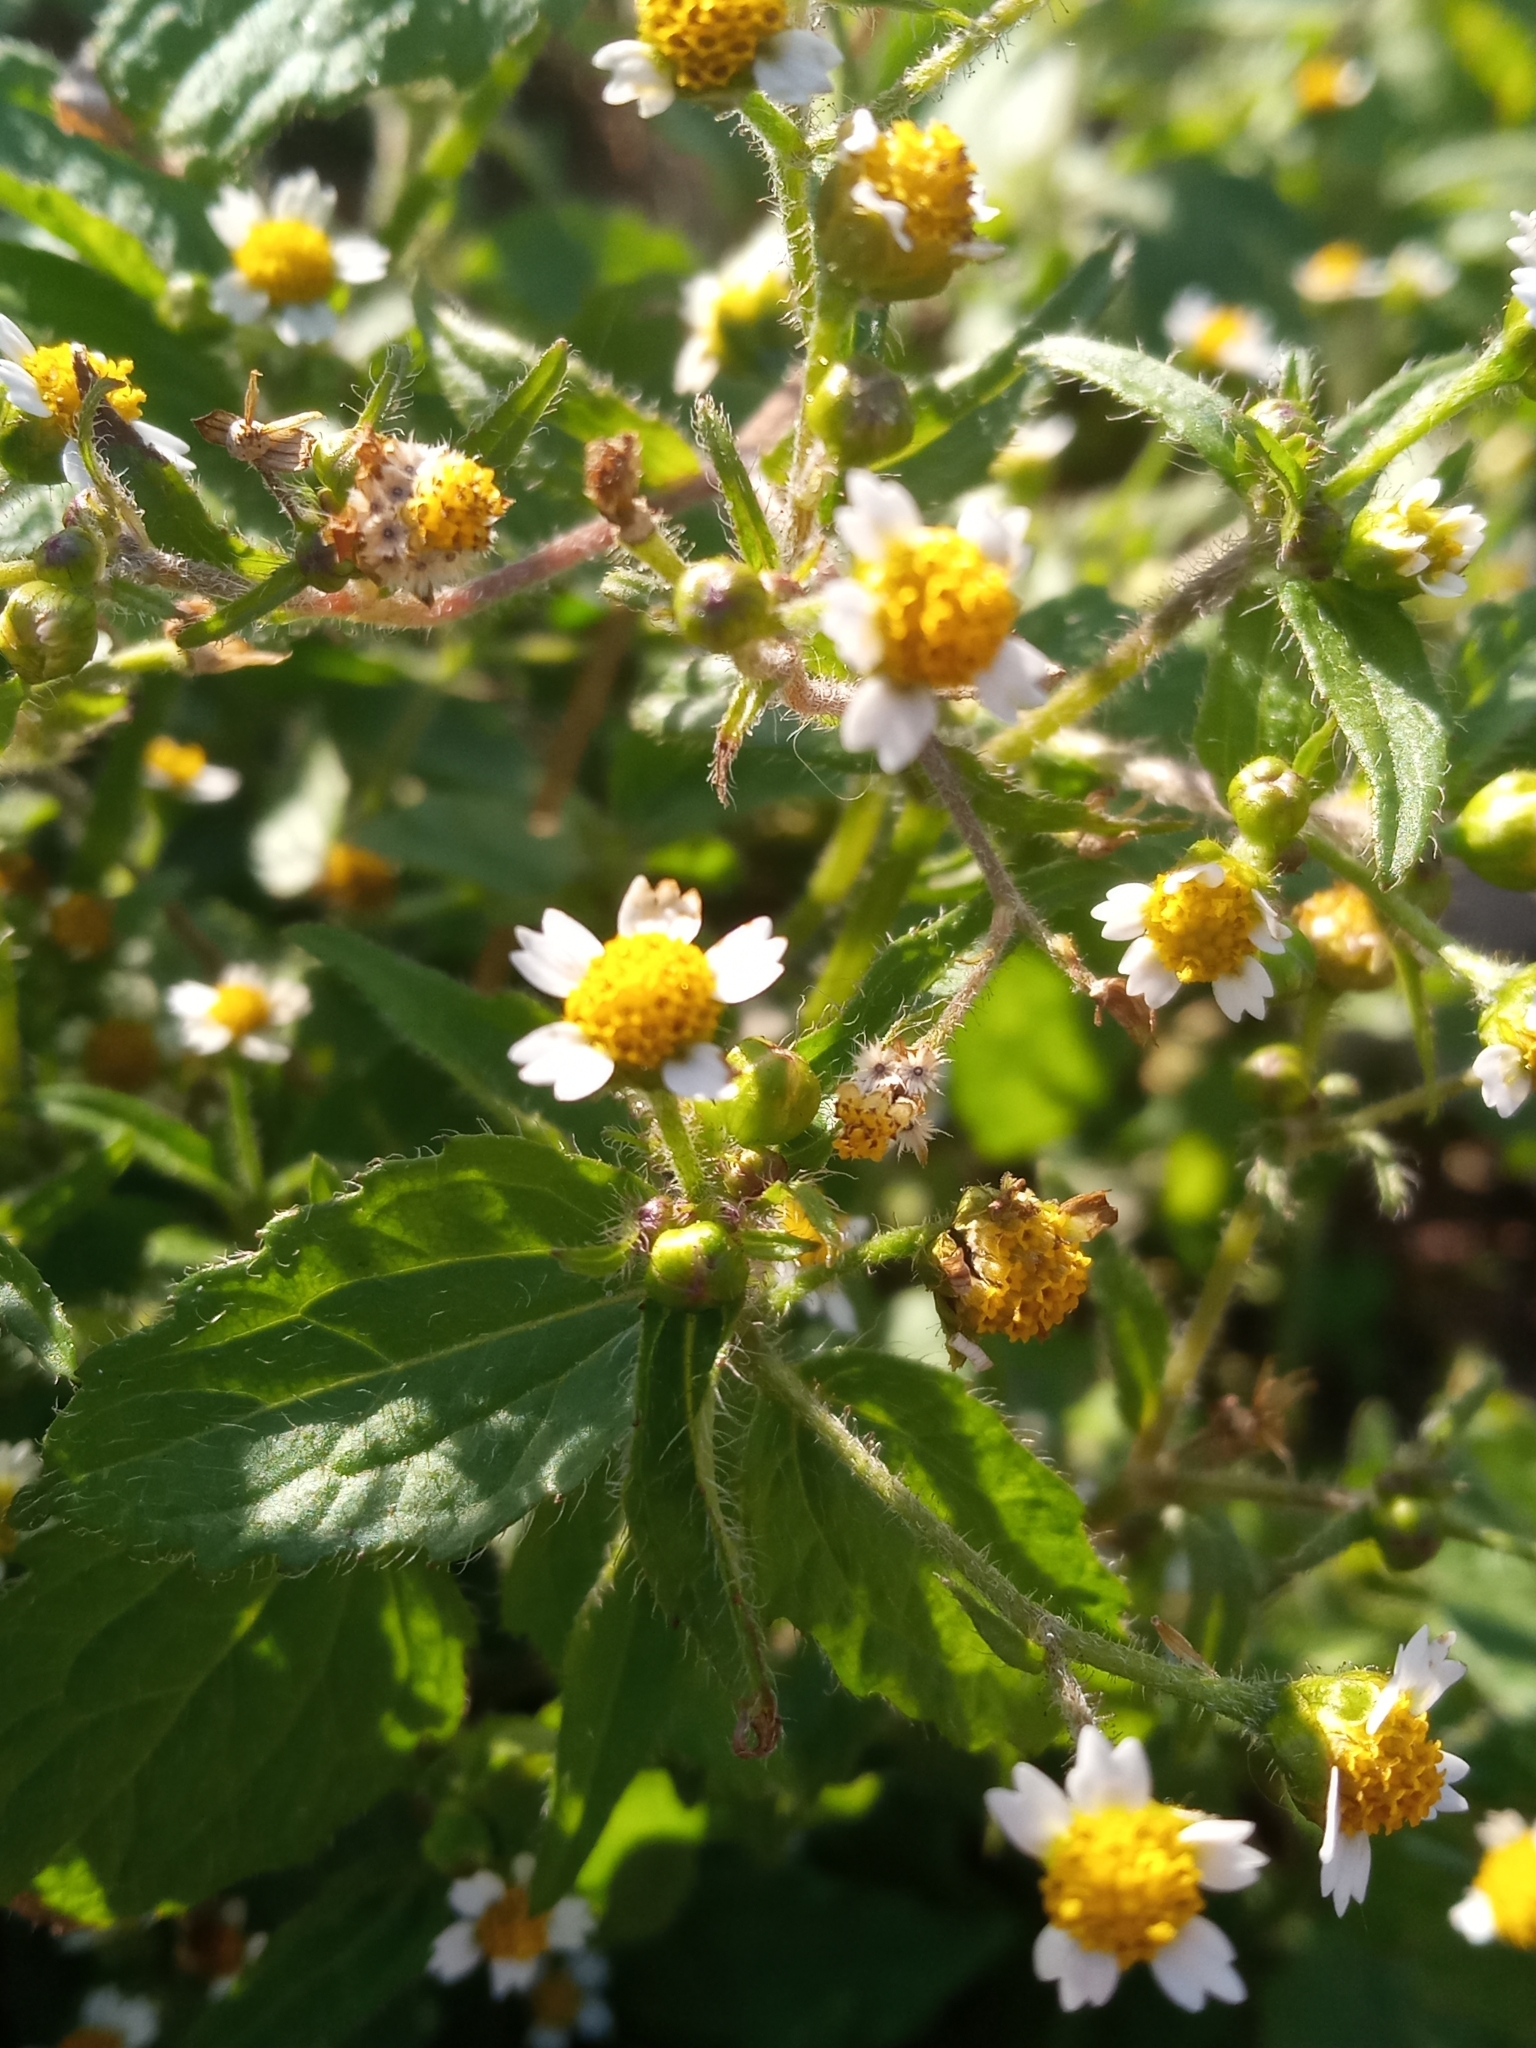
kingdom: Plantae
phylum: Tracheophyta
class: Magnoliopsida
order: Asterales
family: Asteraceae
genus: Galinsoga
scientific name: Galinsoga quadriradiata
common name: Shaggy soldier
